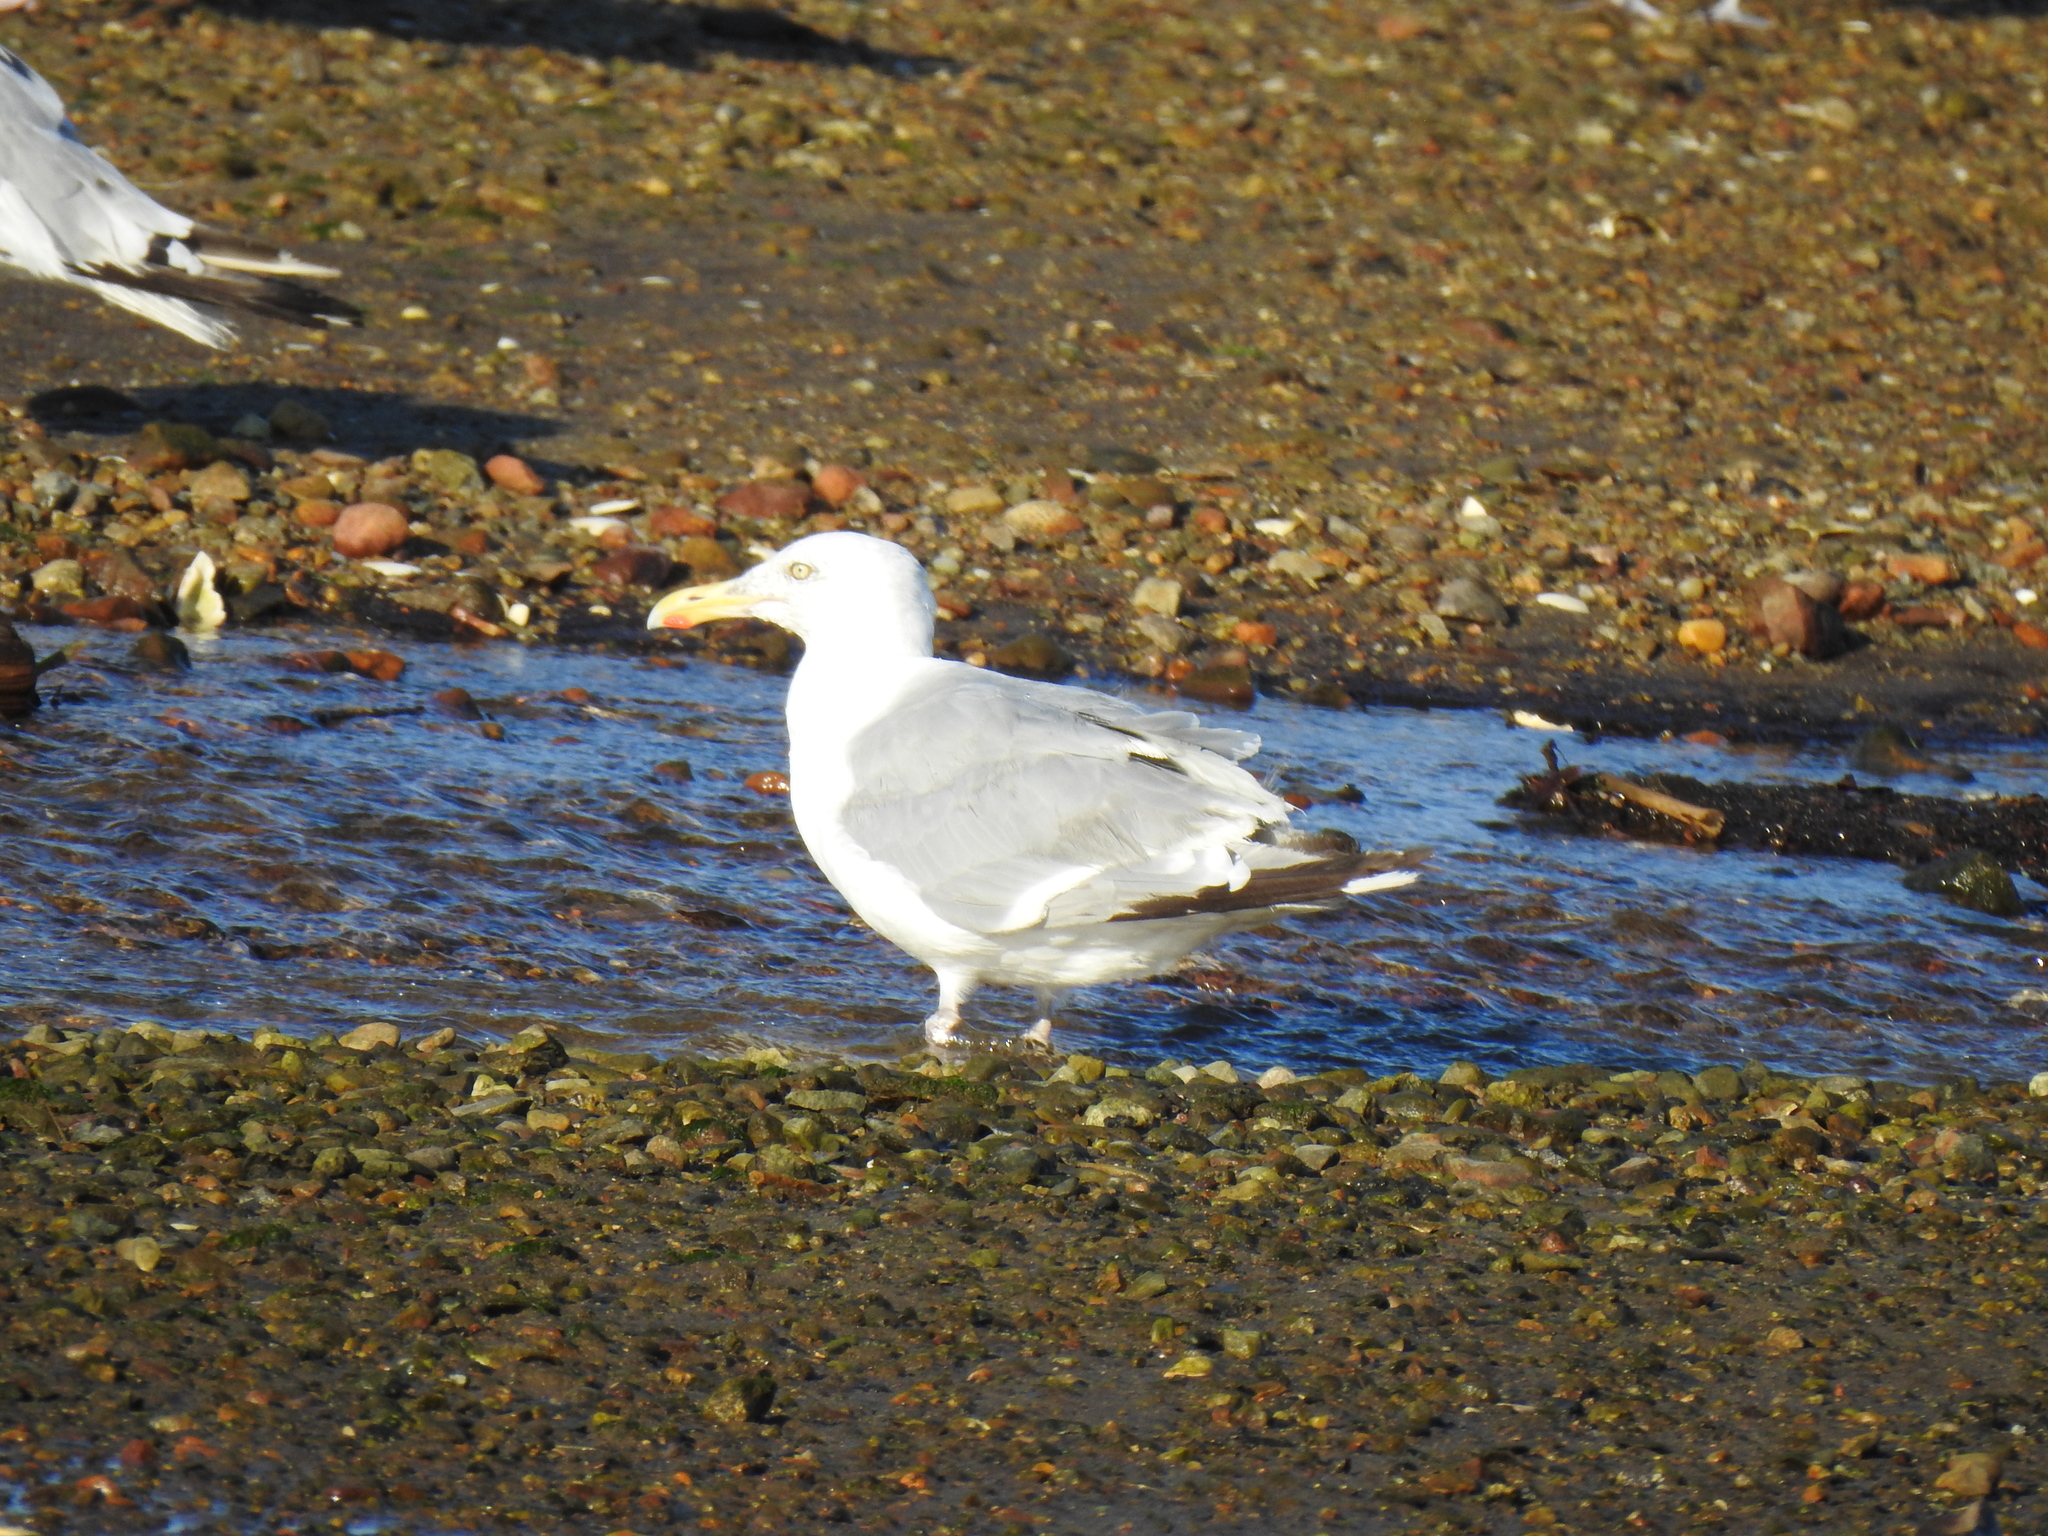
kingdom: Animalia
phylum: Chordata
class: Aves
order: Charadriiformes
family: Laridae
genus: Larus
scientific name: Larus argentatus
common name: Herring gull
